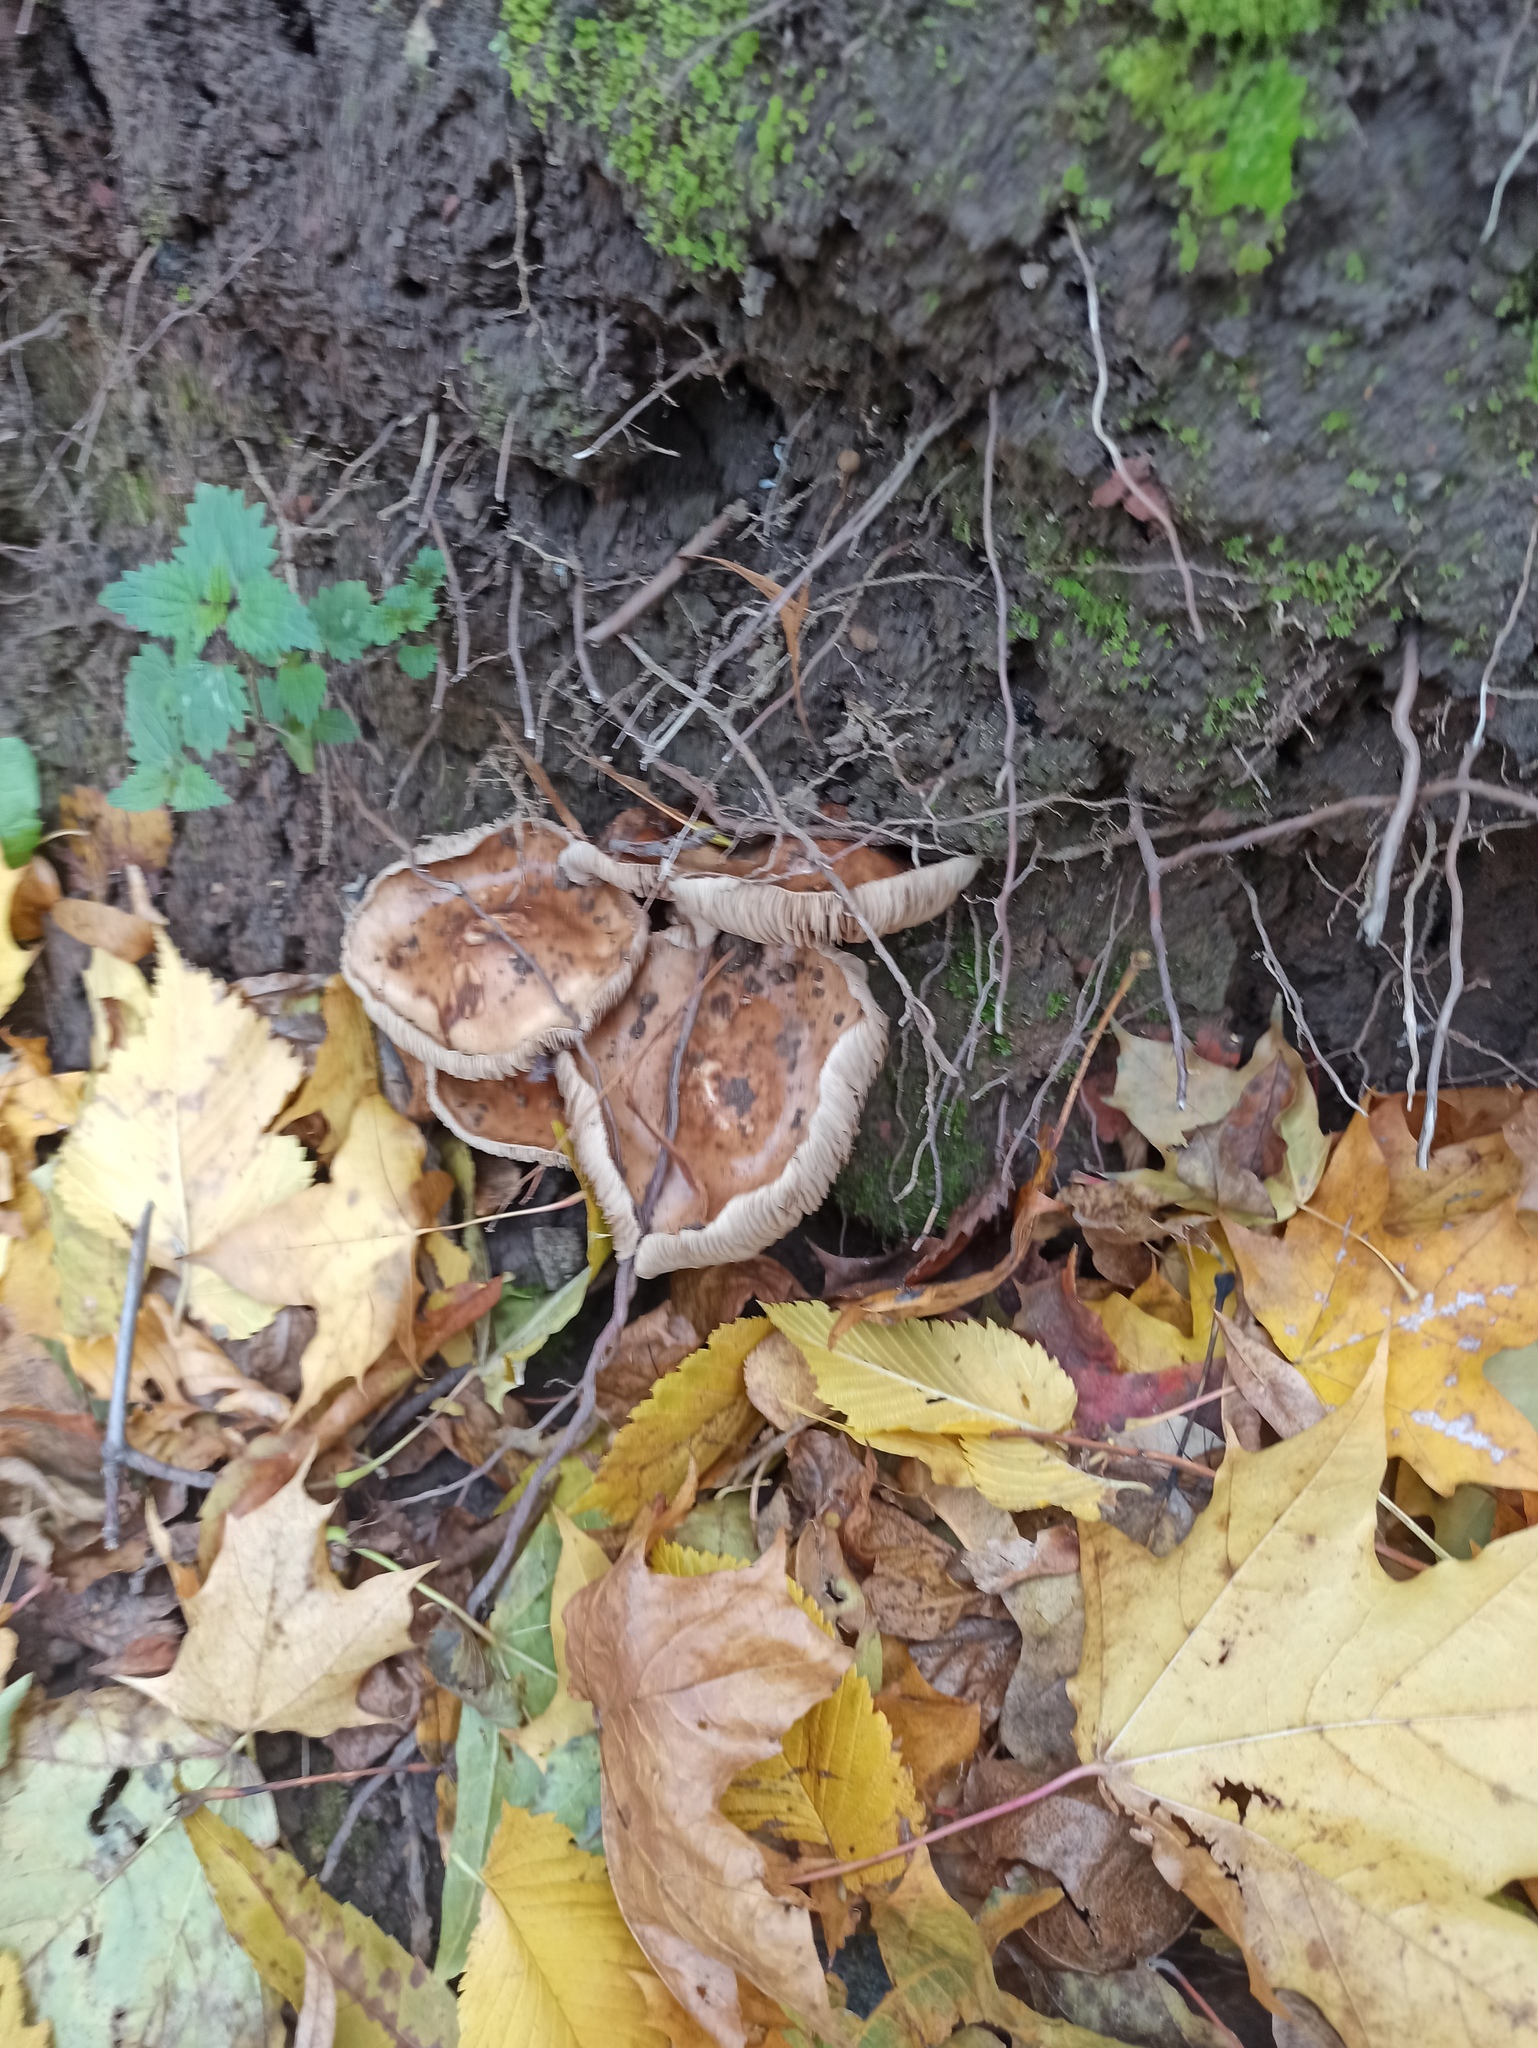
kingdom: Fungi
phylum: Basidiomycota
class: Agaricomycetes
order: Agaricales
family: Tubariaceae
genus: Cyclocybe
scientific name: Cyclocybe erebia
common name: Dark fieldcap
